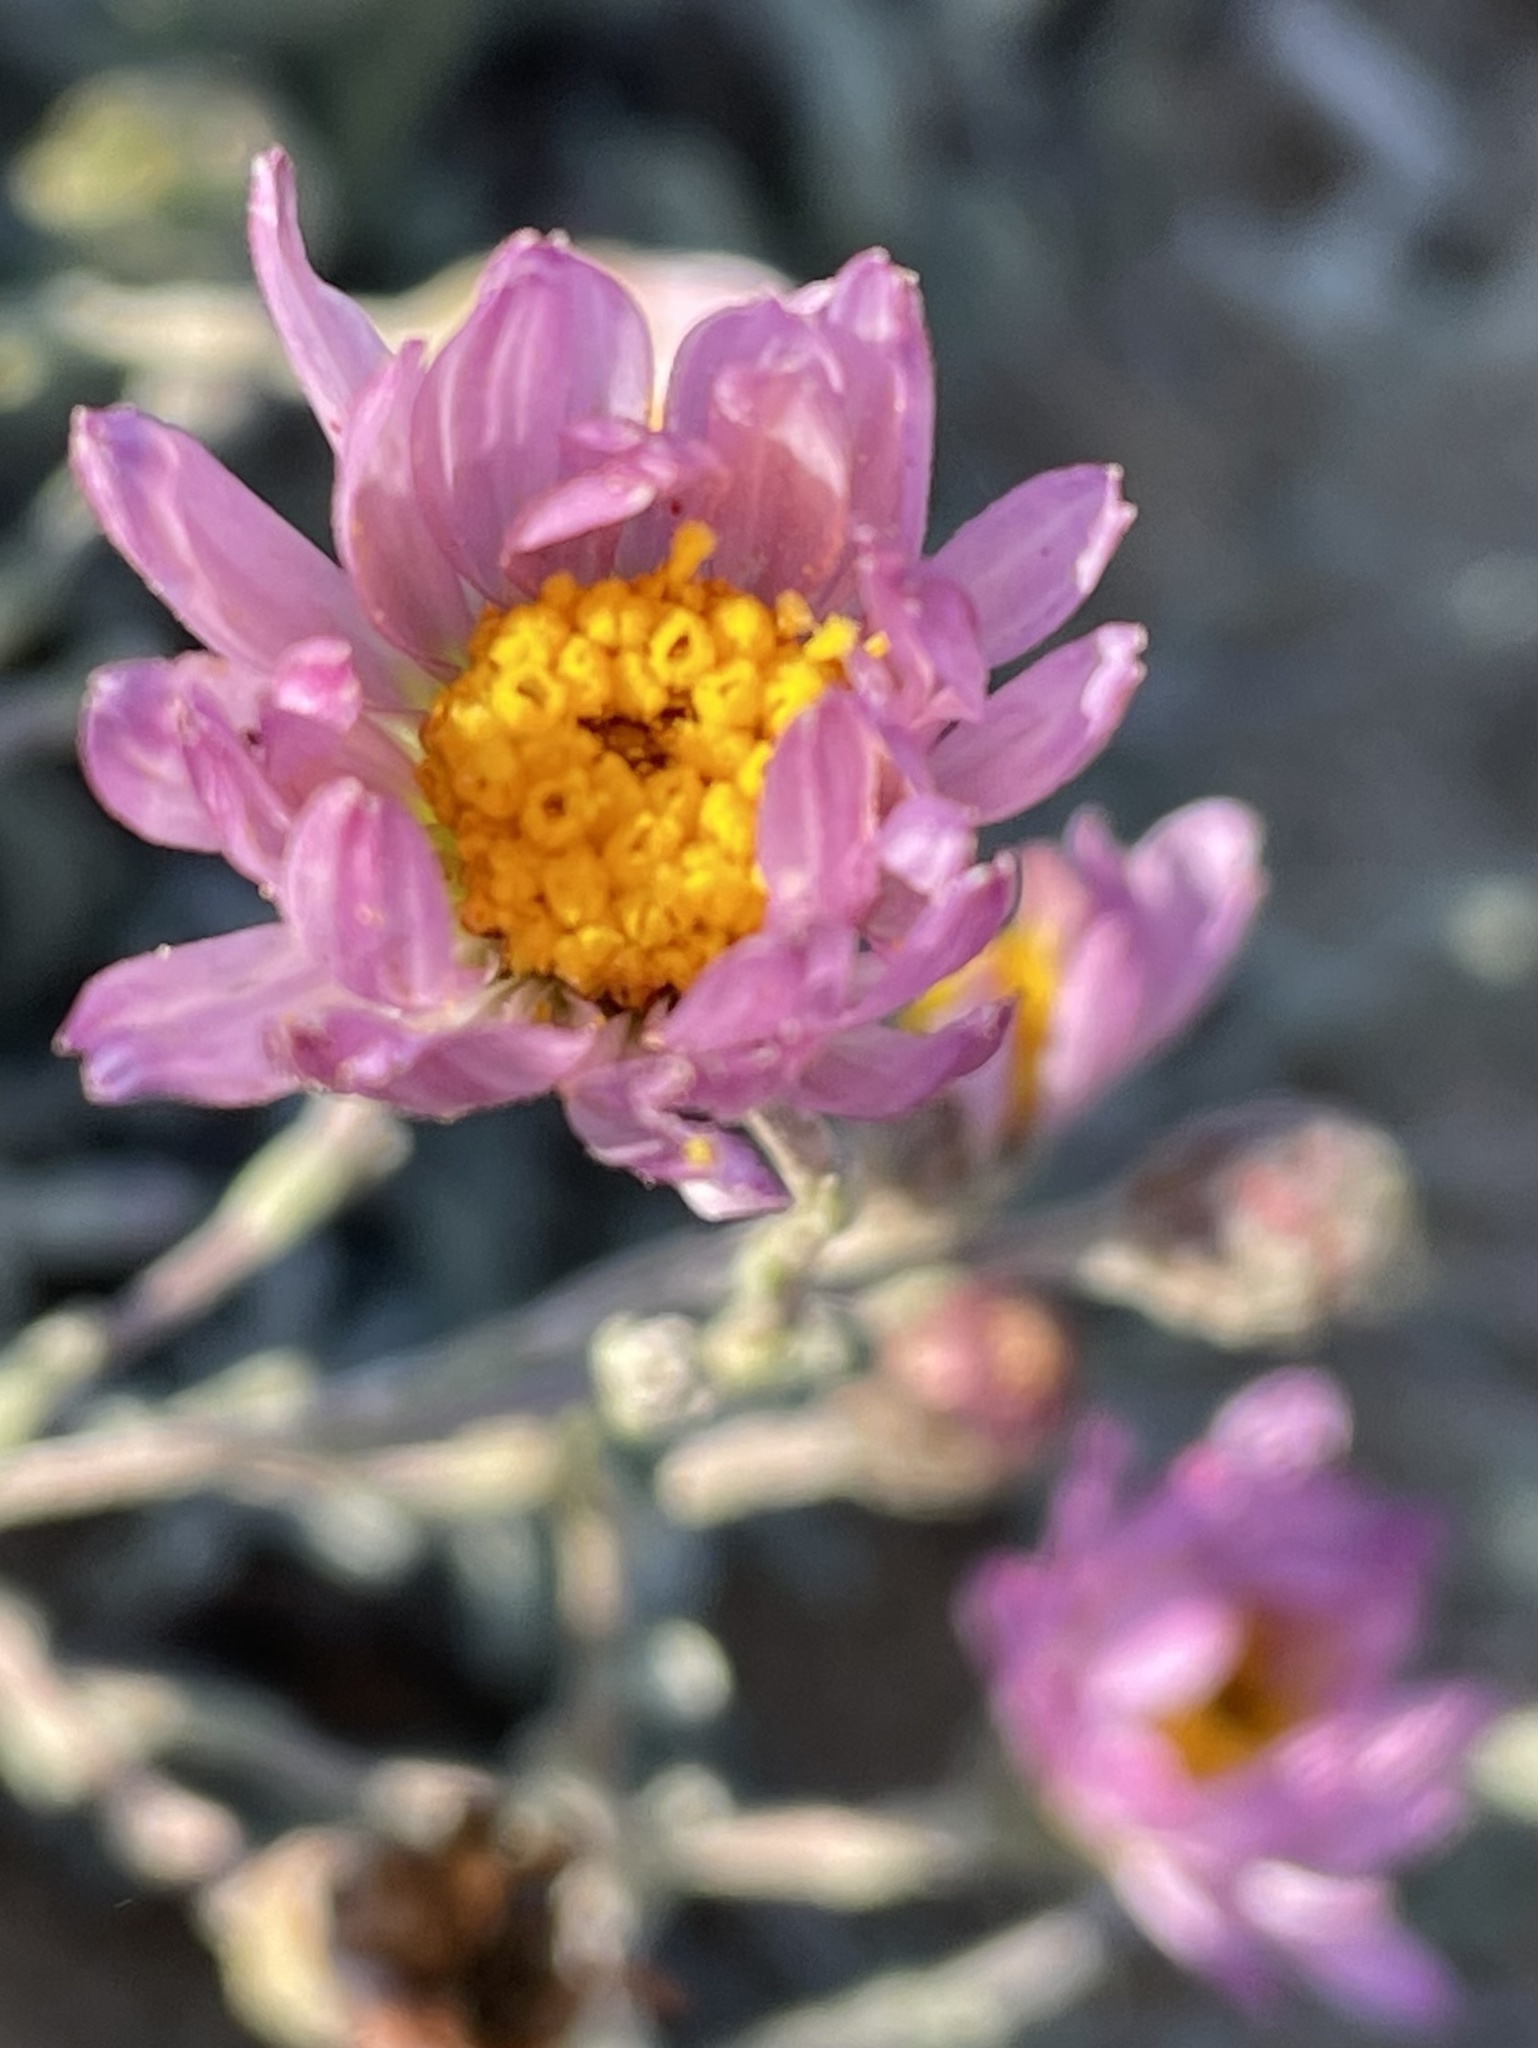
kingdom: Plantae
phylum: Tracheophyta
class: Magnoliopsida
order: Asterales
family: Asteraceae
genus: Corethrogyne
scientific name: Corethrogyne filaginifolia
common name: Sand-aster
